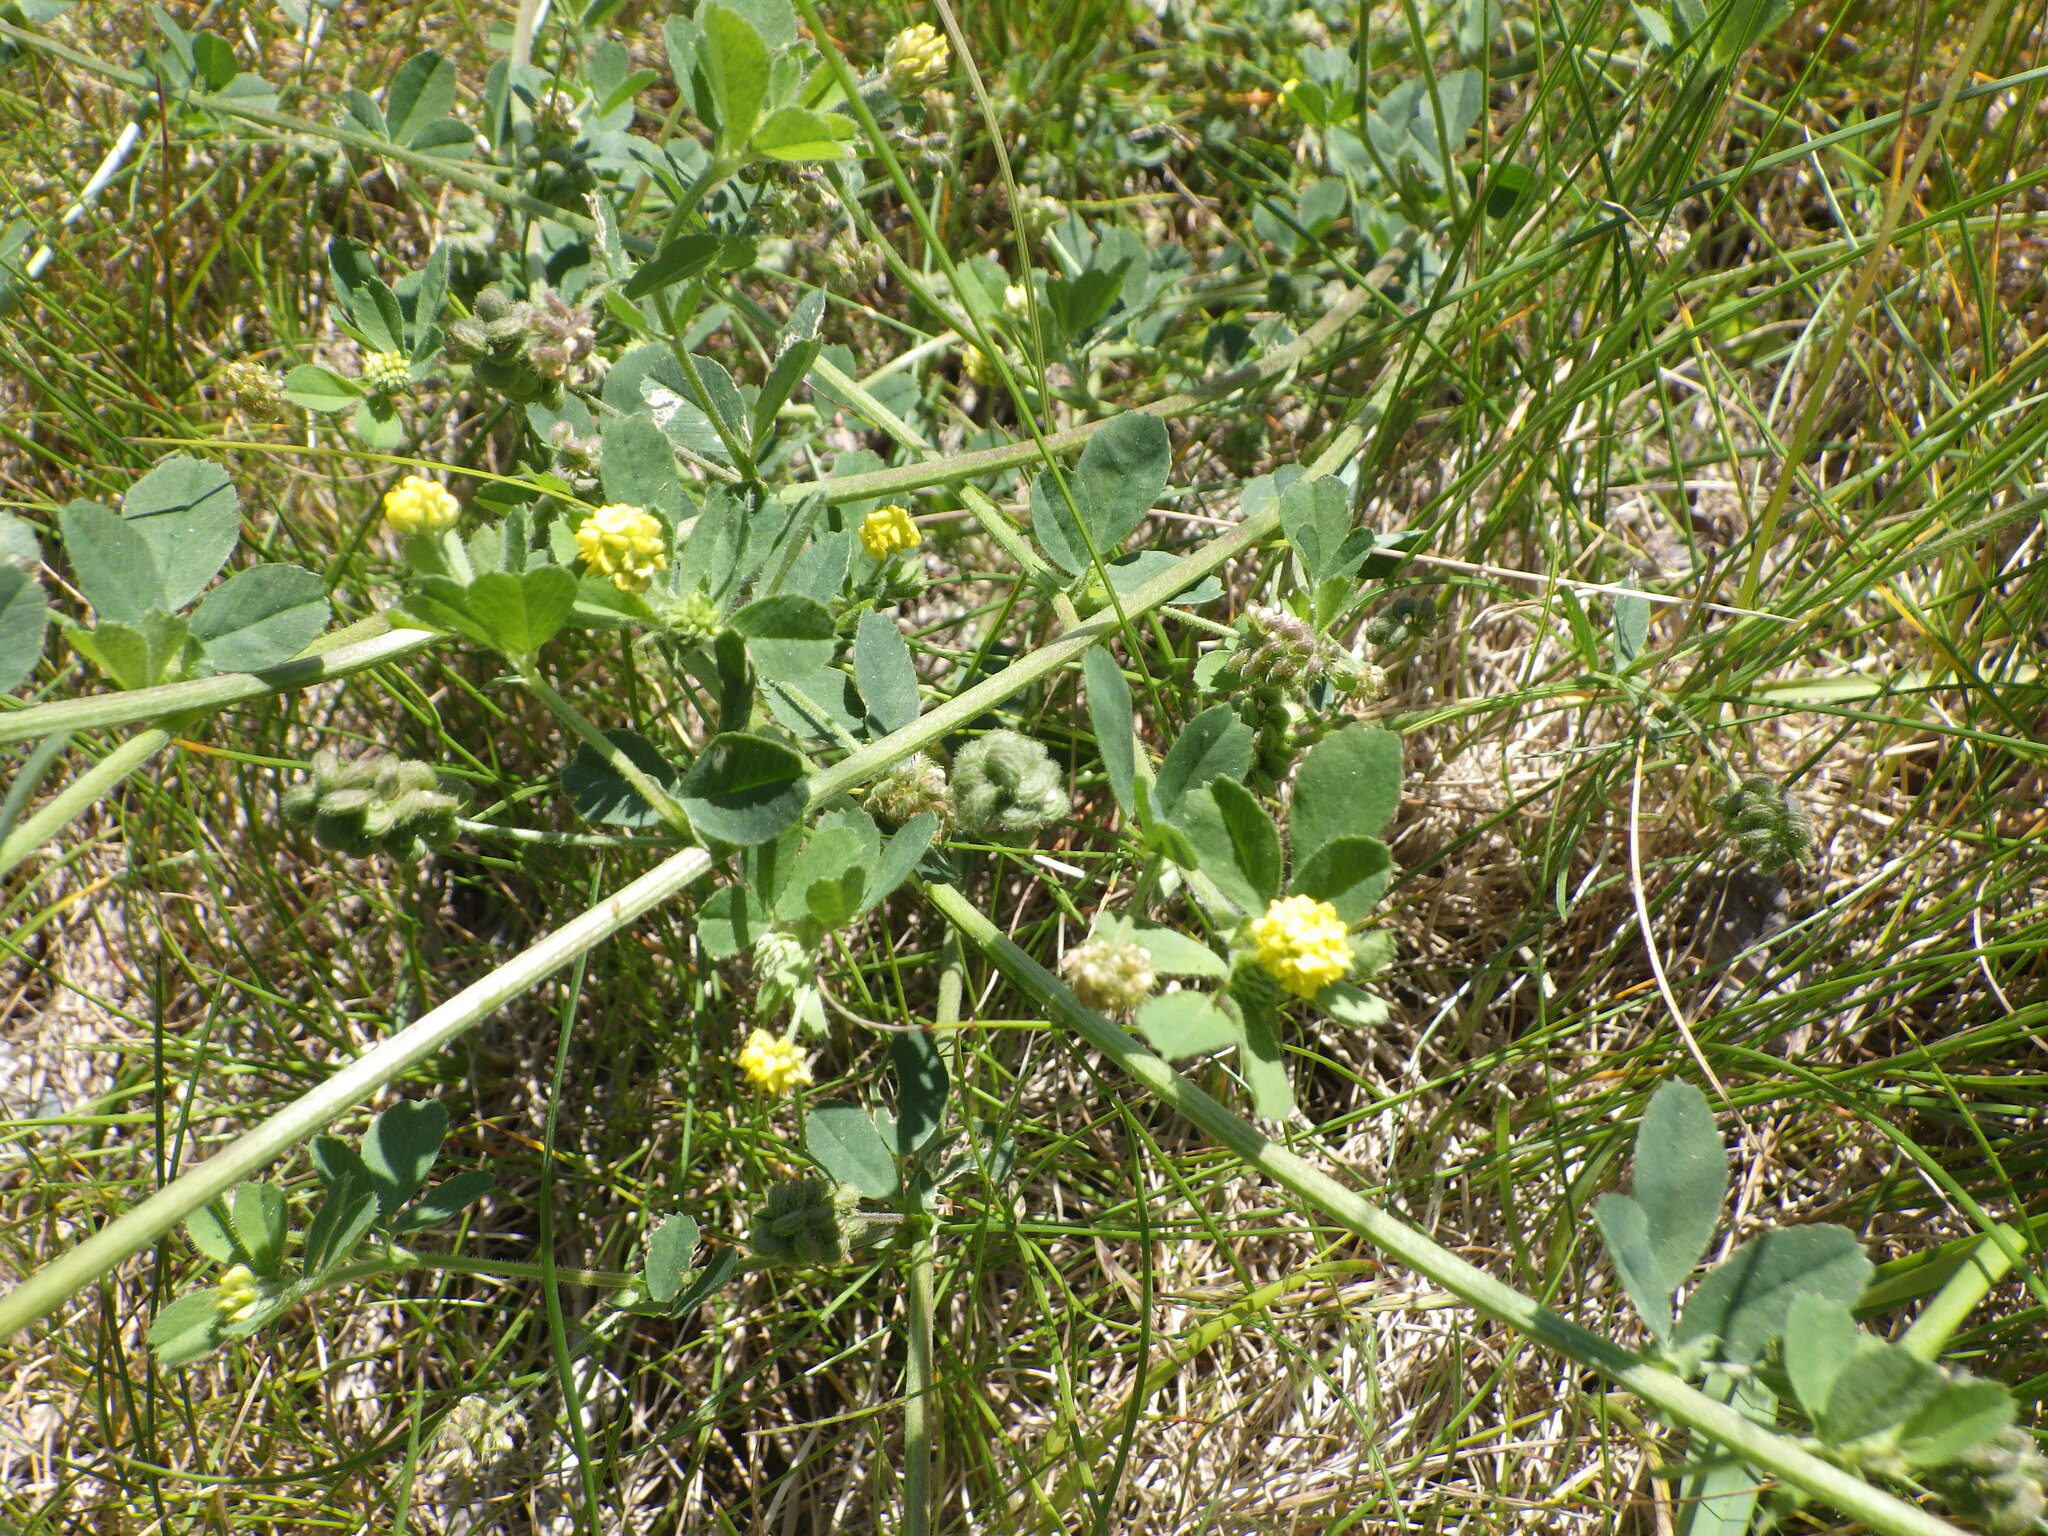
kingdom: Plantae
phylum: Tracheophyta
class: Magnoliopsida
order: Fabales
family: Fabaceae
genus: Medicago
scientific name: Medicago lupulina
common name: Black medick
